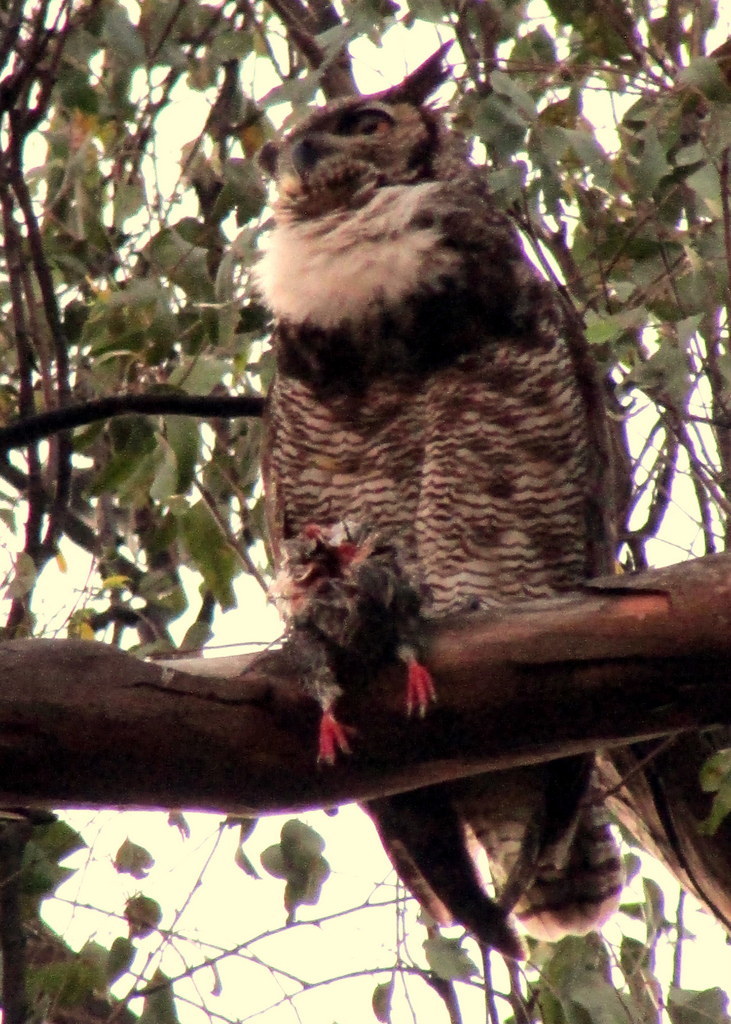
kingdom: Animalia
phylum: Chordata
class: Aves
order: Strigiformes
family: Strigidae
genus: Bubo
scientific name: Bubo virginianus
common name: Great horned owl
